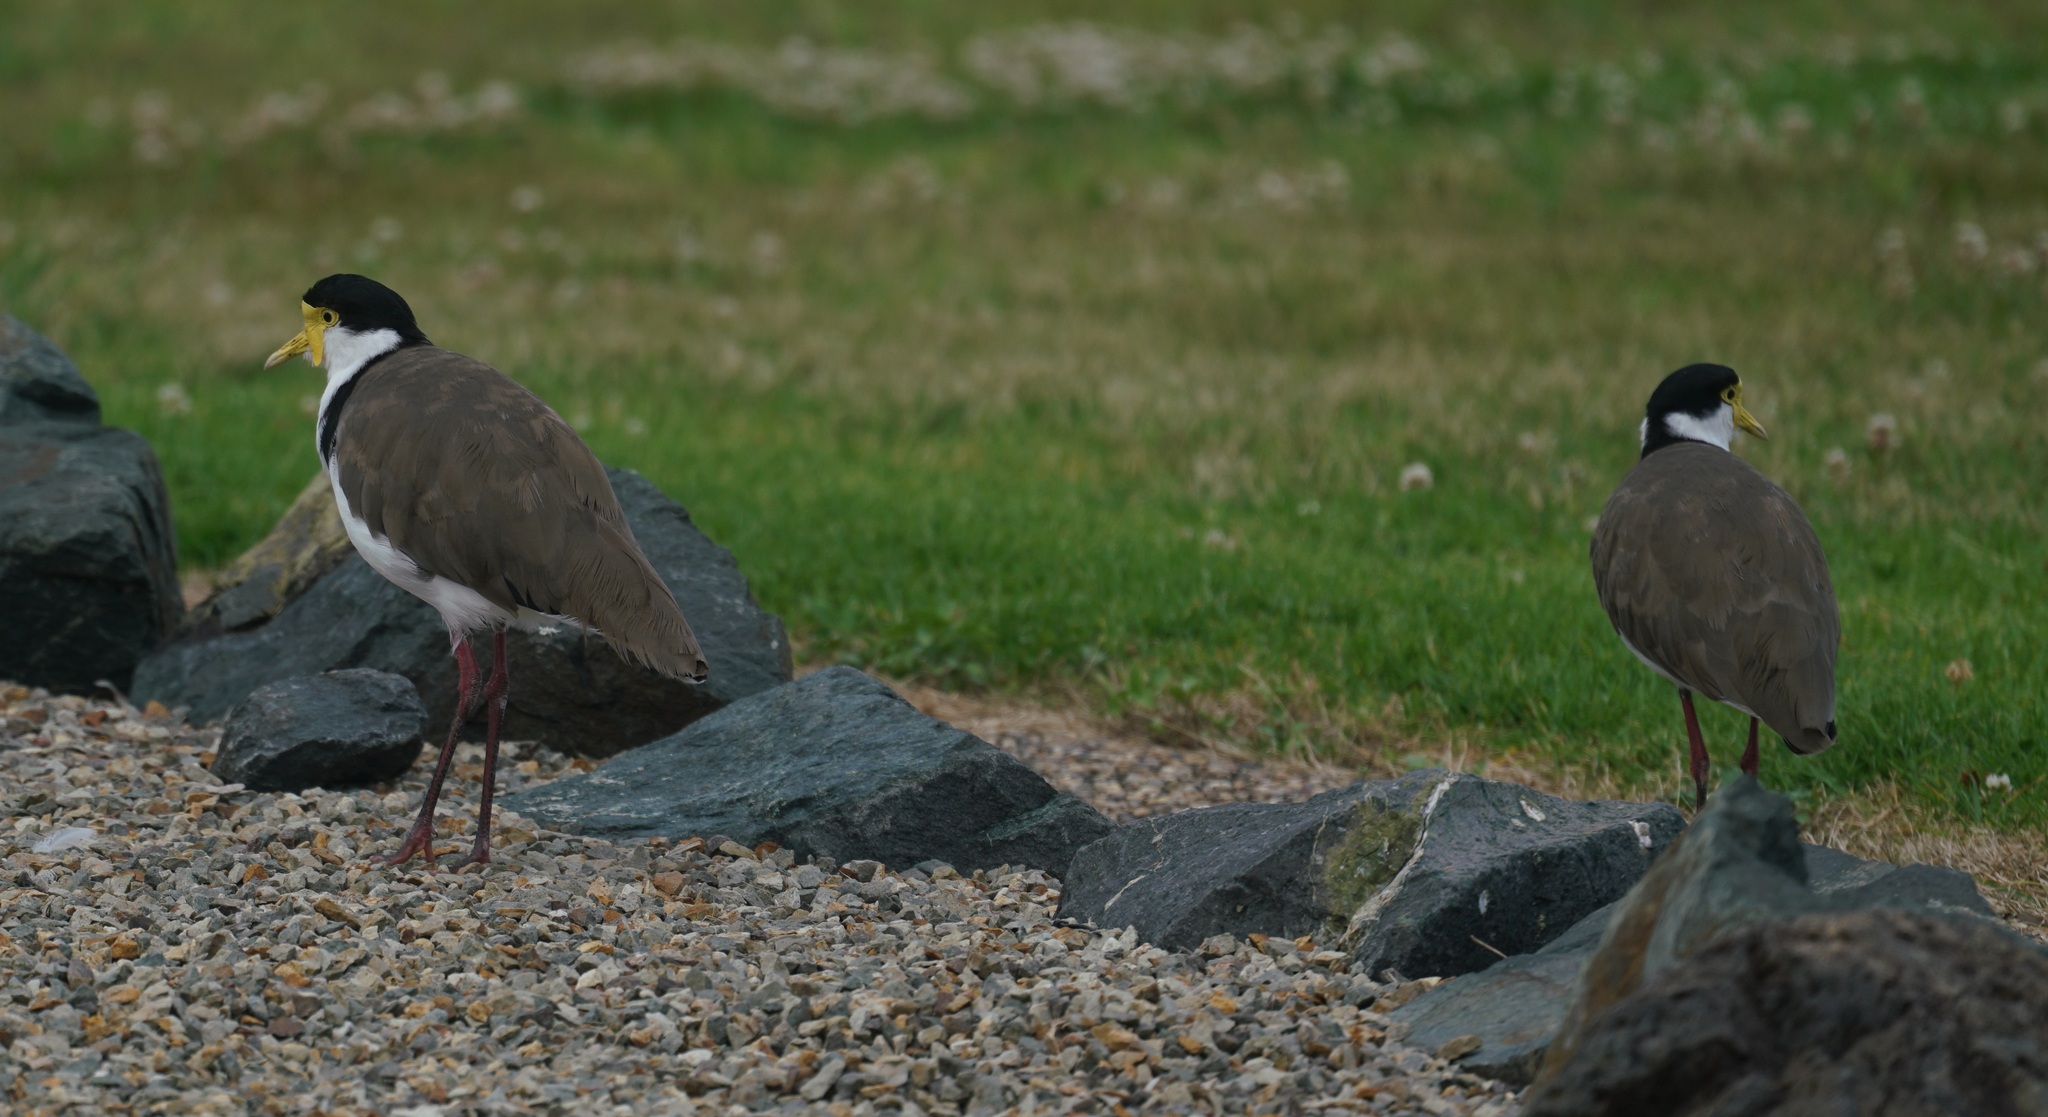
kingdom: Animalia
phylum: Chordata
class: Aves
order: Charadriiformes
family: Charadriidae
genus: Vanellus
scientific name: Vanellus miles
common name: Masked lapwing
